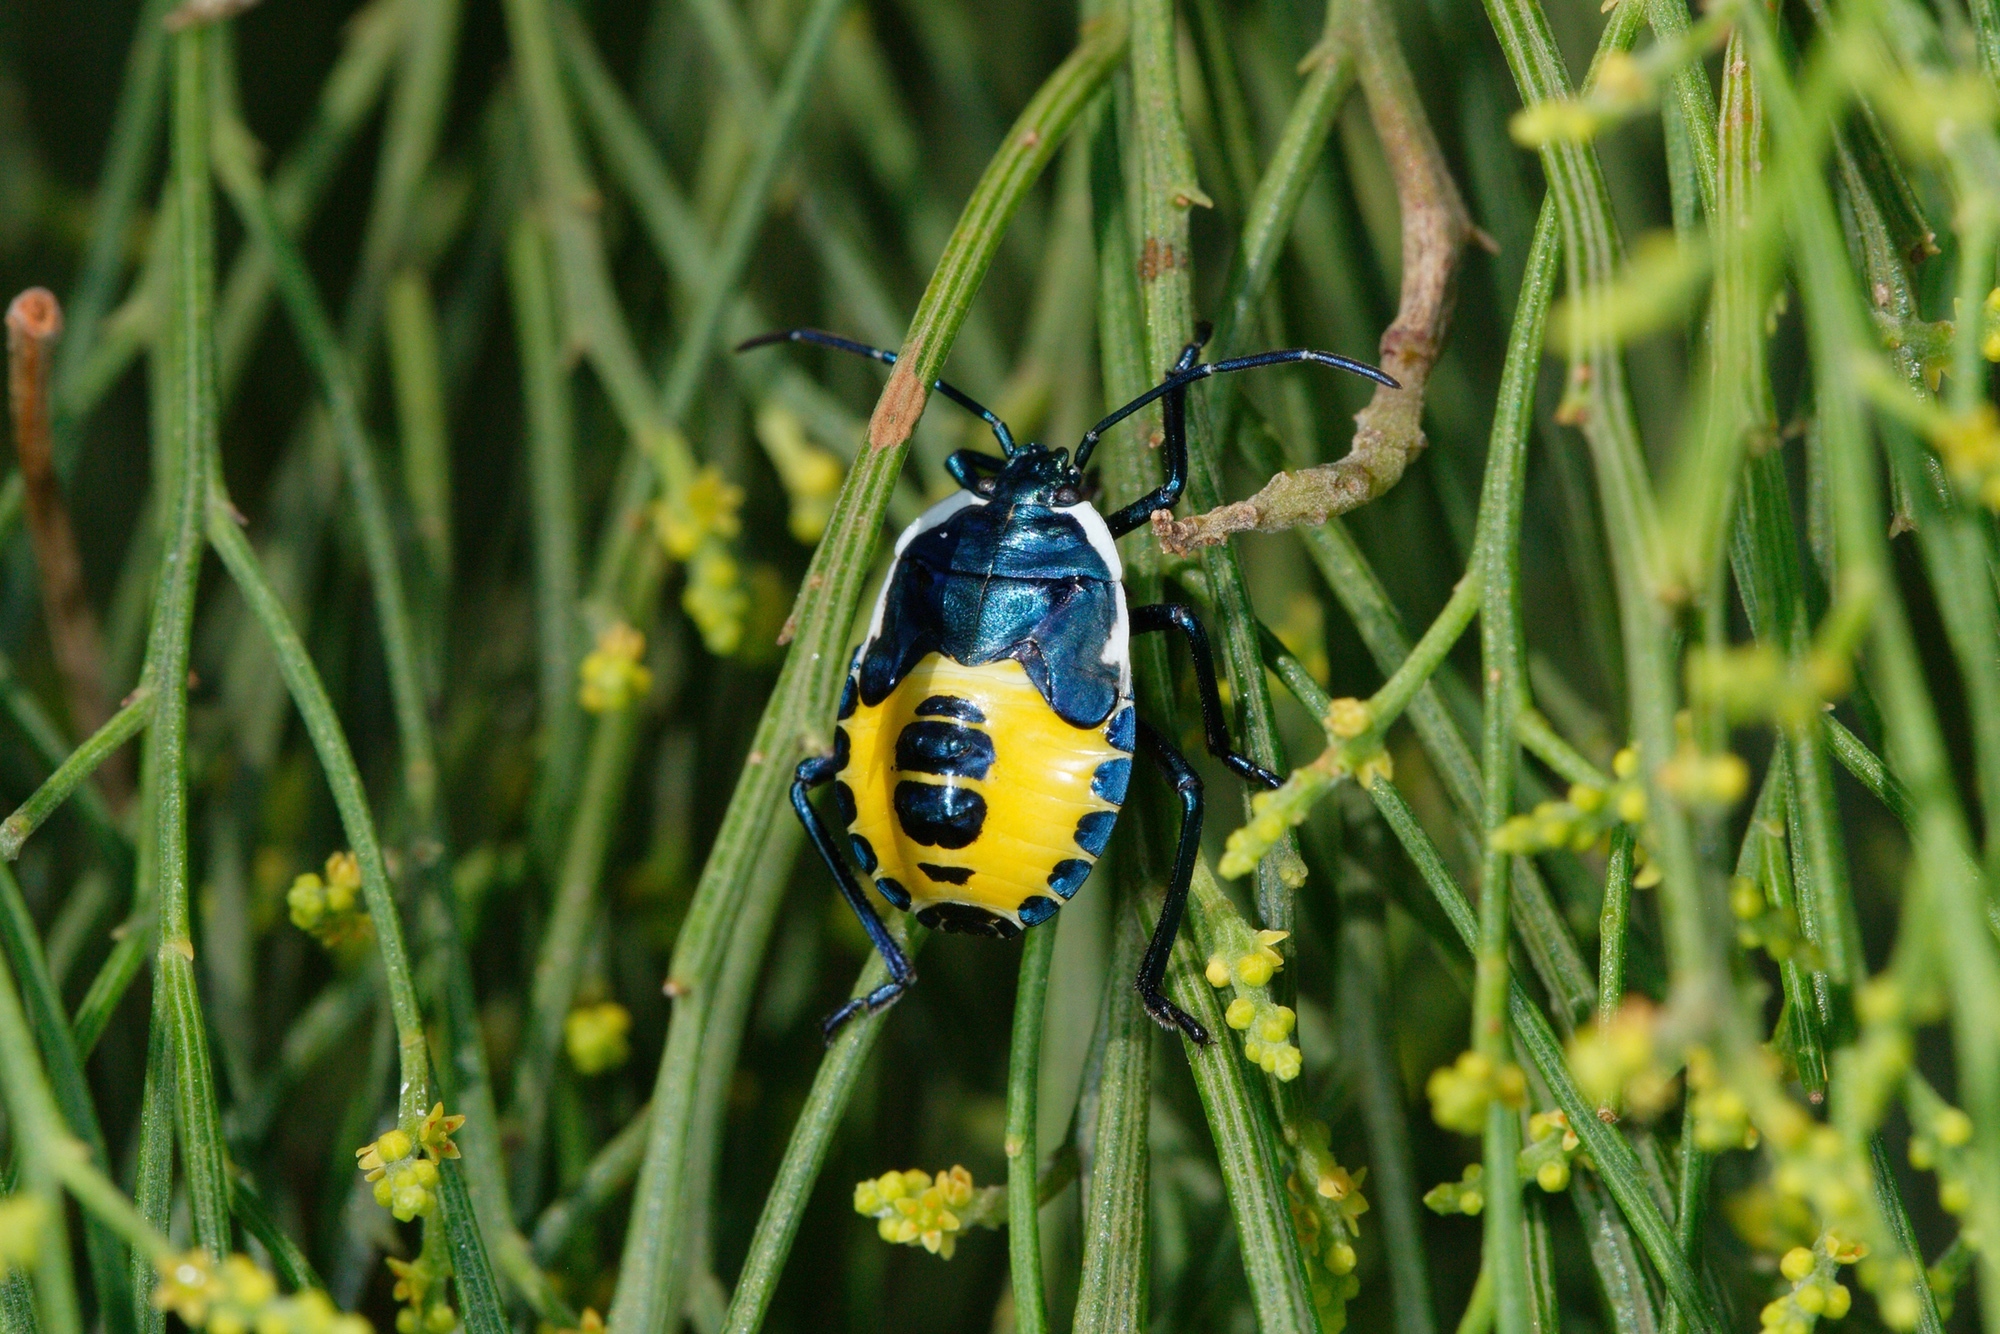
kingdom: Animalia
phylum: Arthropoda
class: Insecta
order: Hemiptera
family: Pentatomidae
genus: Commius
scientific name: Commius
